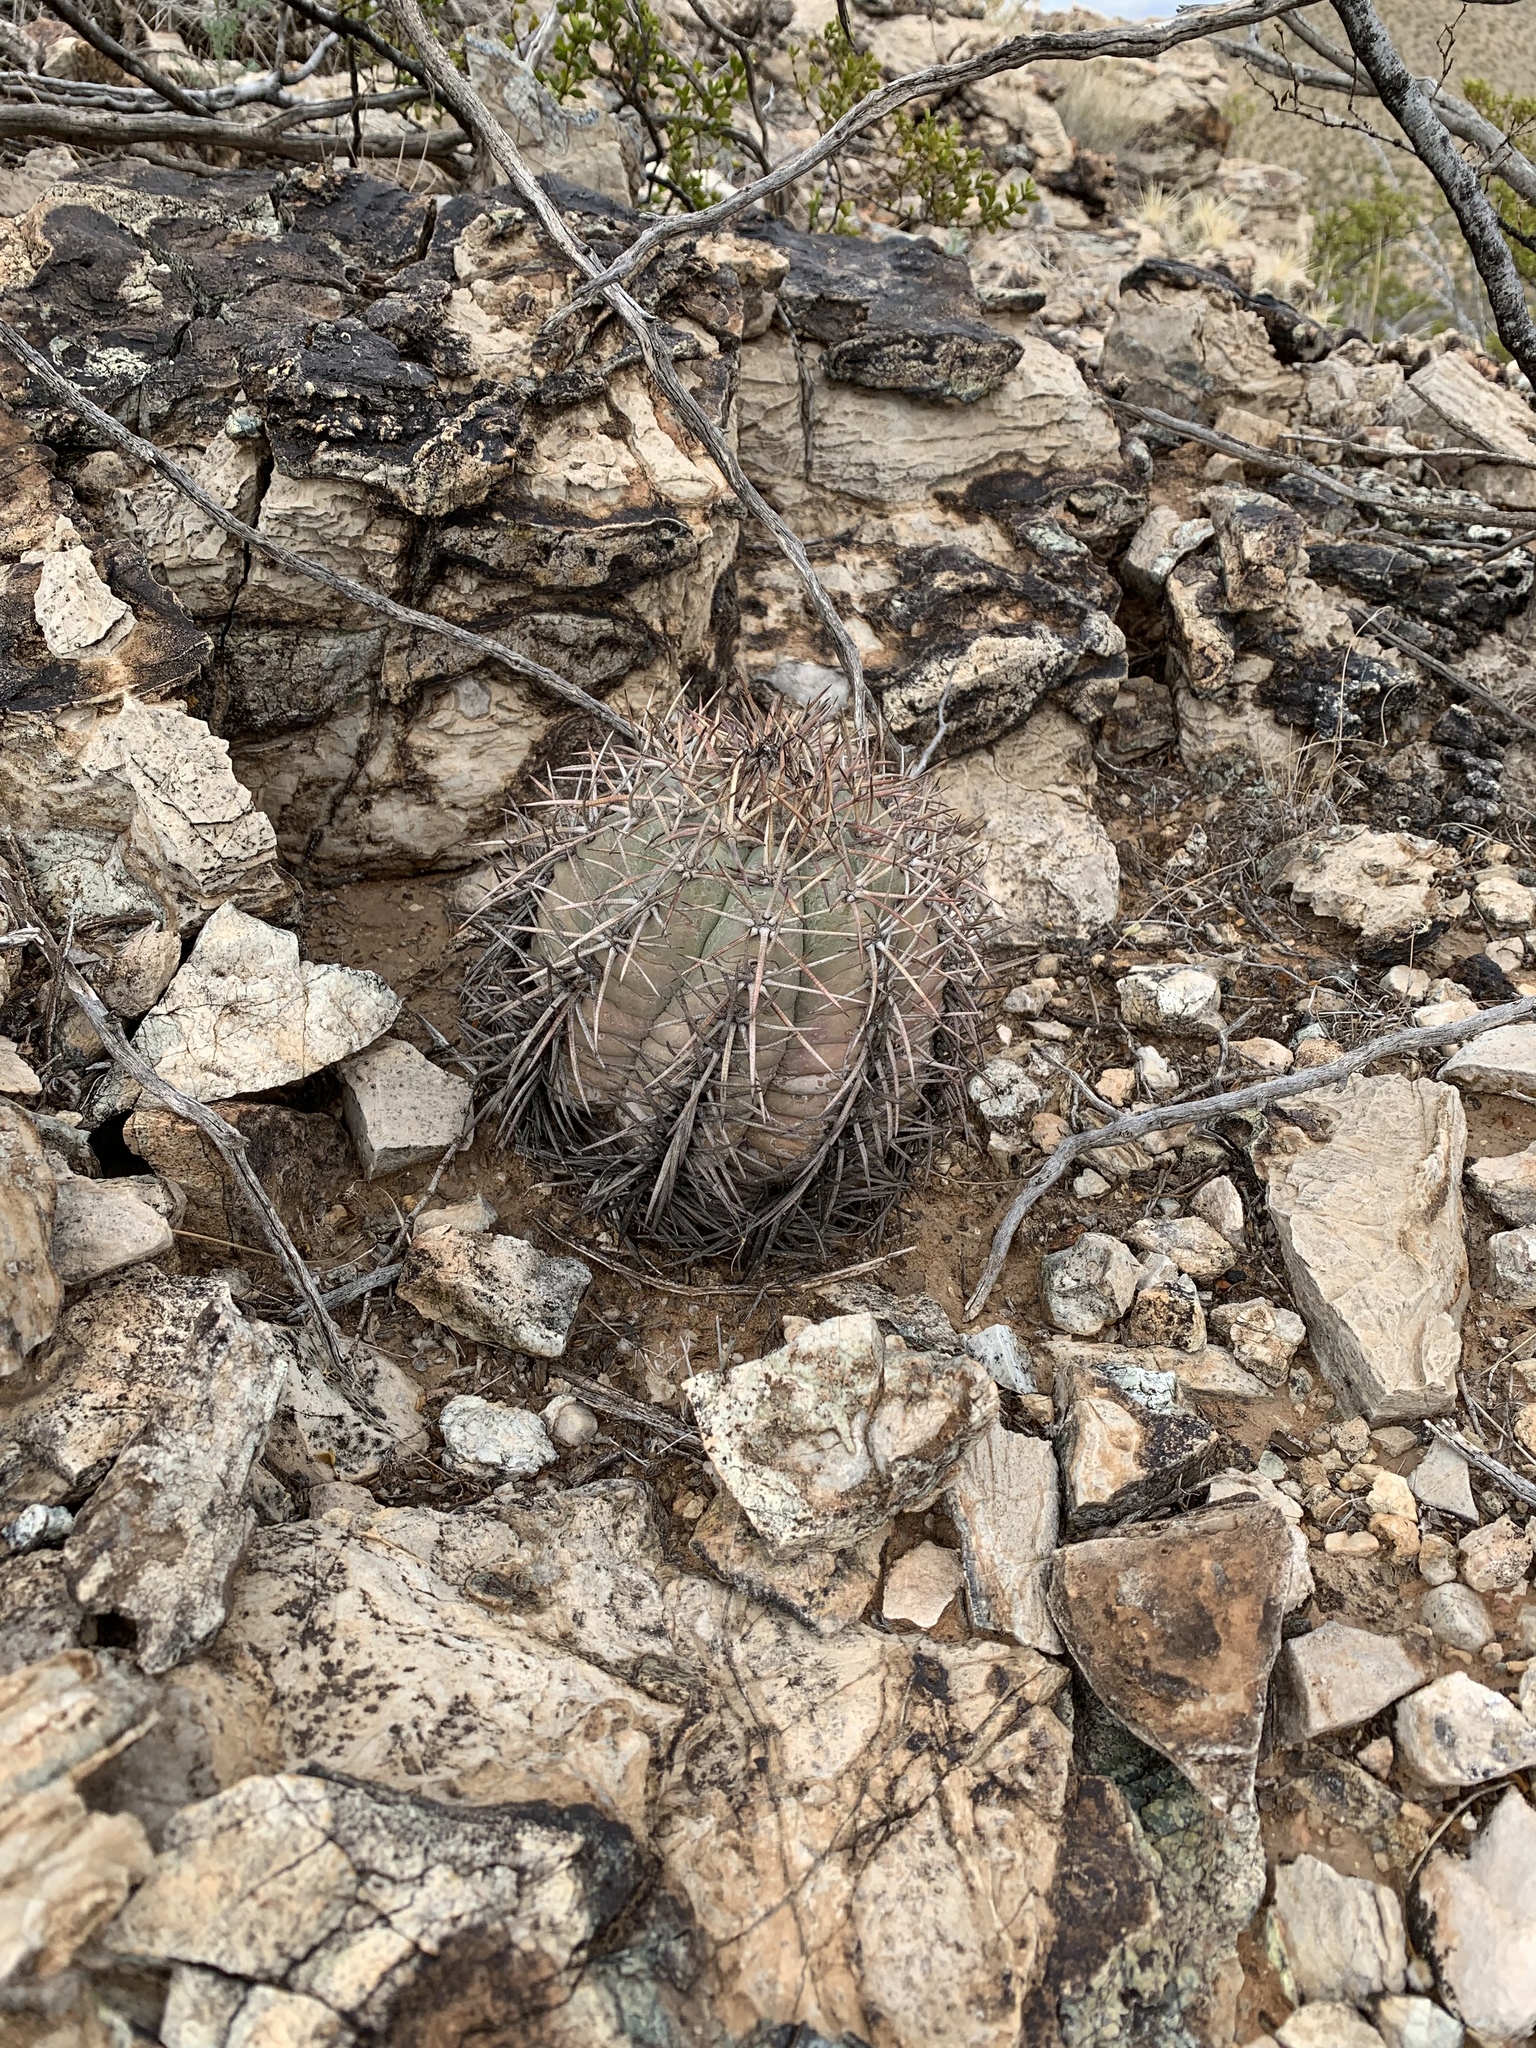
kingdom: Plantae
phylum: Tracheophyta
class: Magnoliopsida
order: Caryophyllales
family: Cactaceae
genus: Echinocactus
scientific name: Echinocactus horizonthalonius
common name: Devilshead
